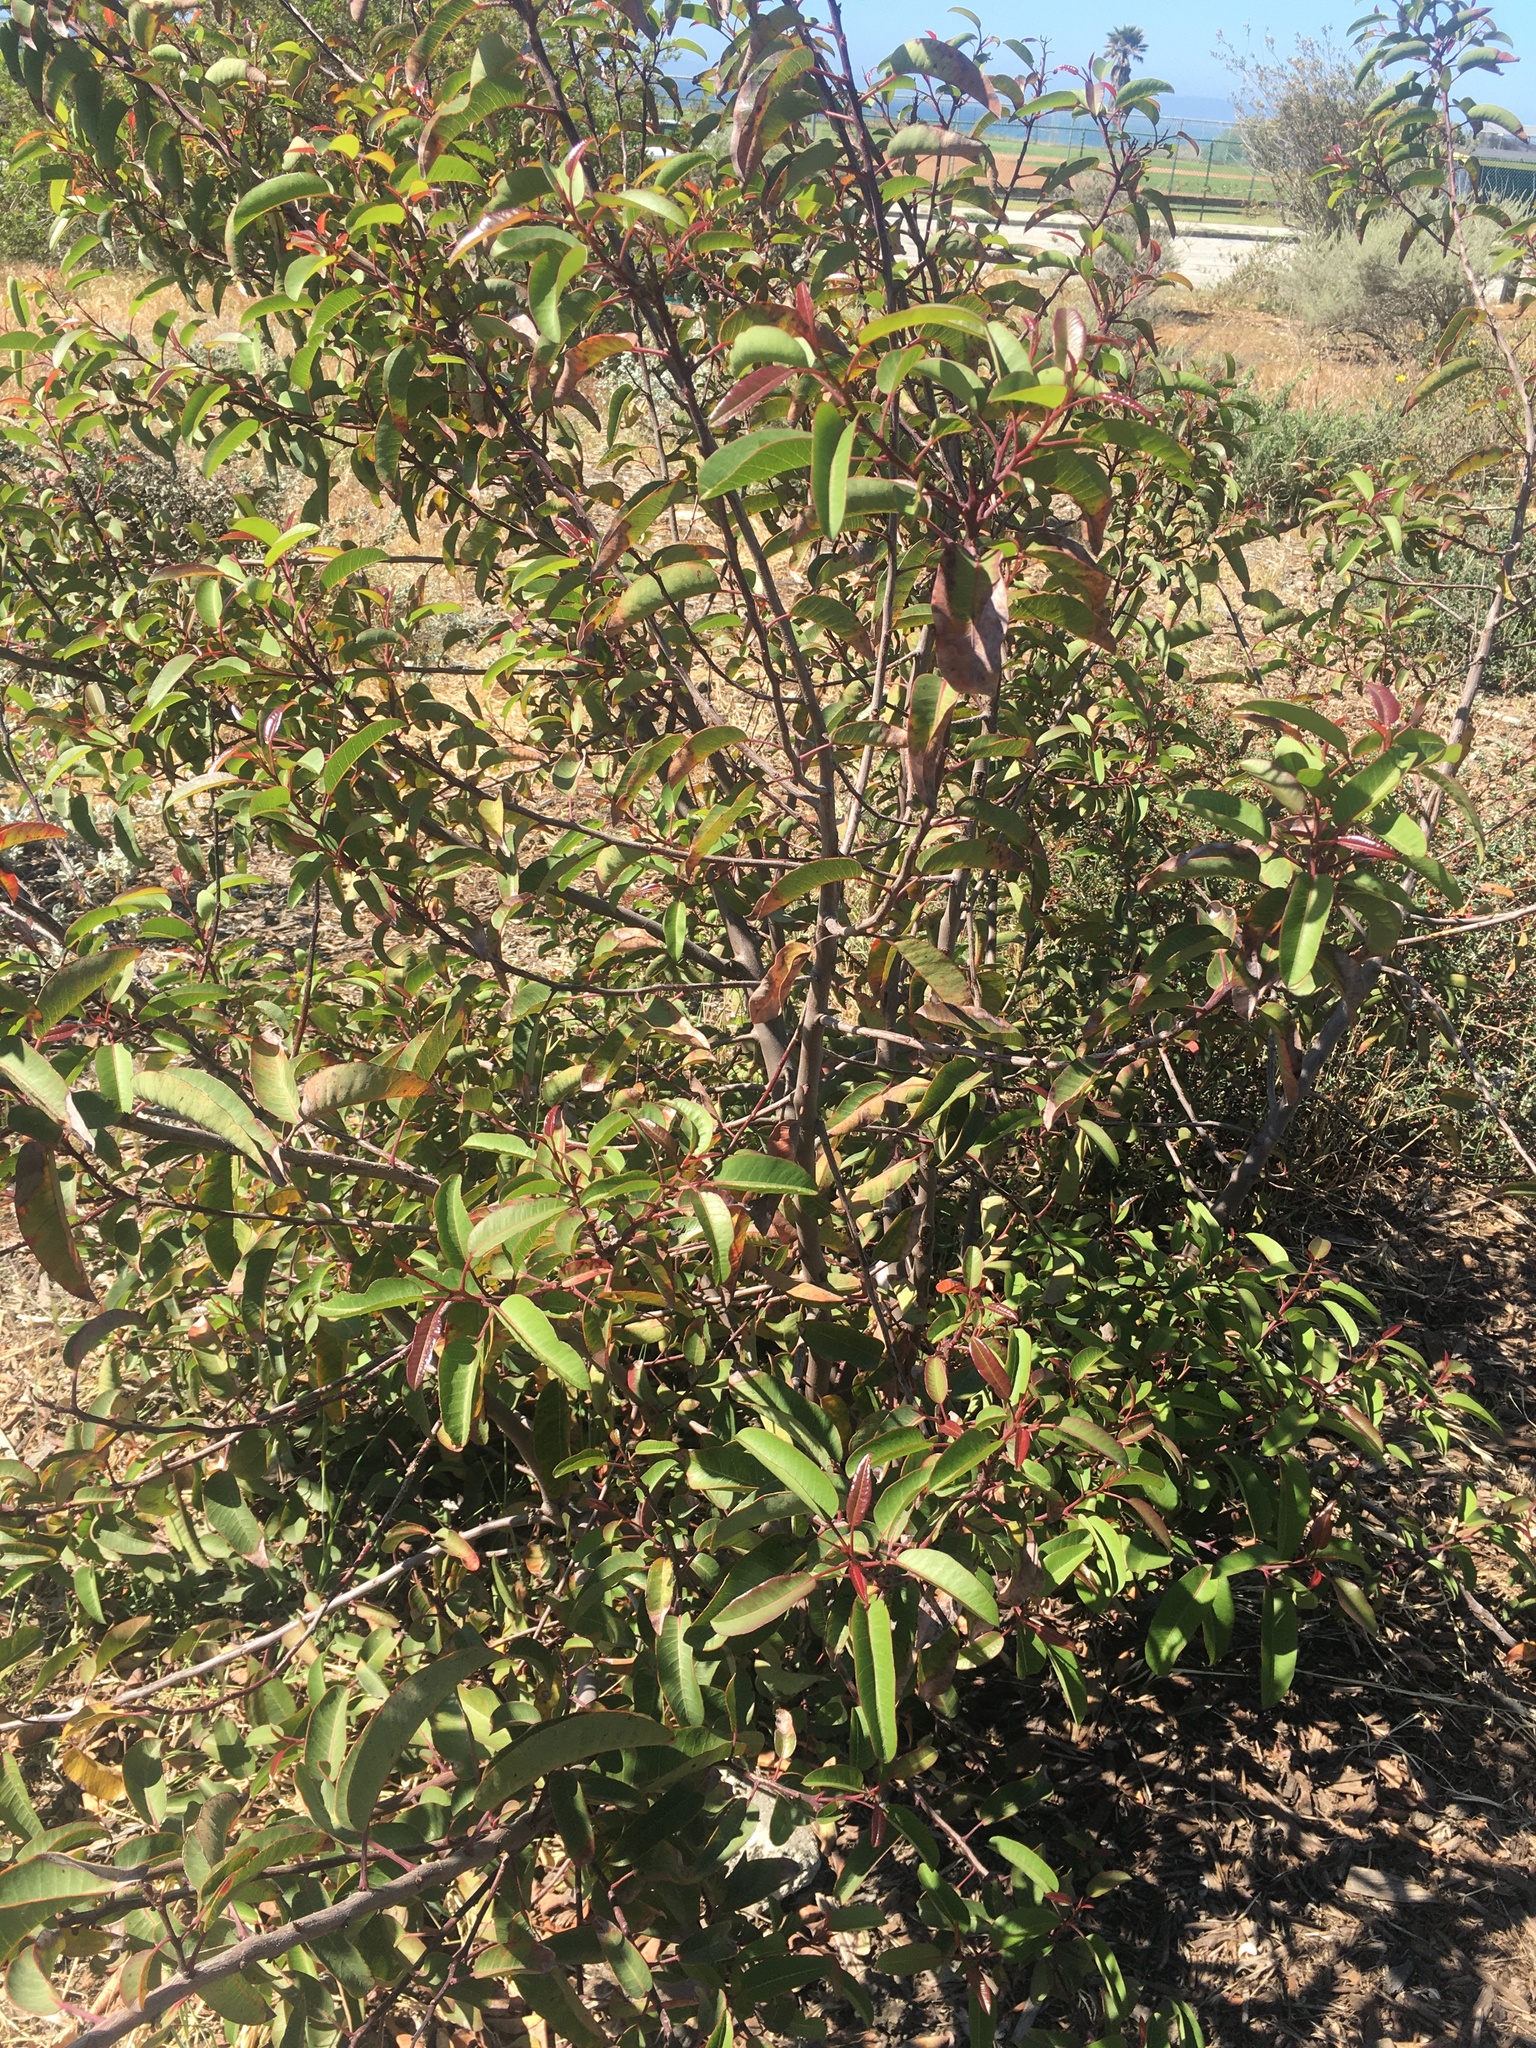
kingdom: Plantae
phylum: Tracheophyta
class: Magnoliopsida
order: Sapindales
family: Anacardiaceae
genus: Malosma
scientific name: Malosma laurina
